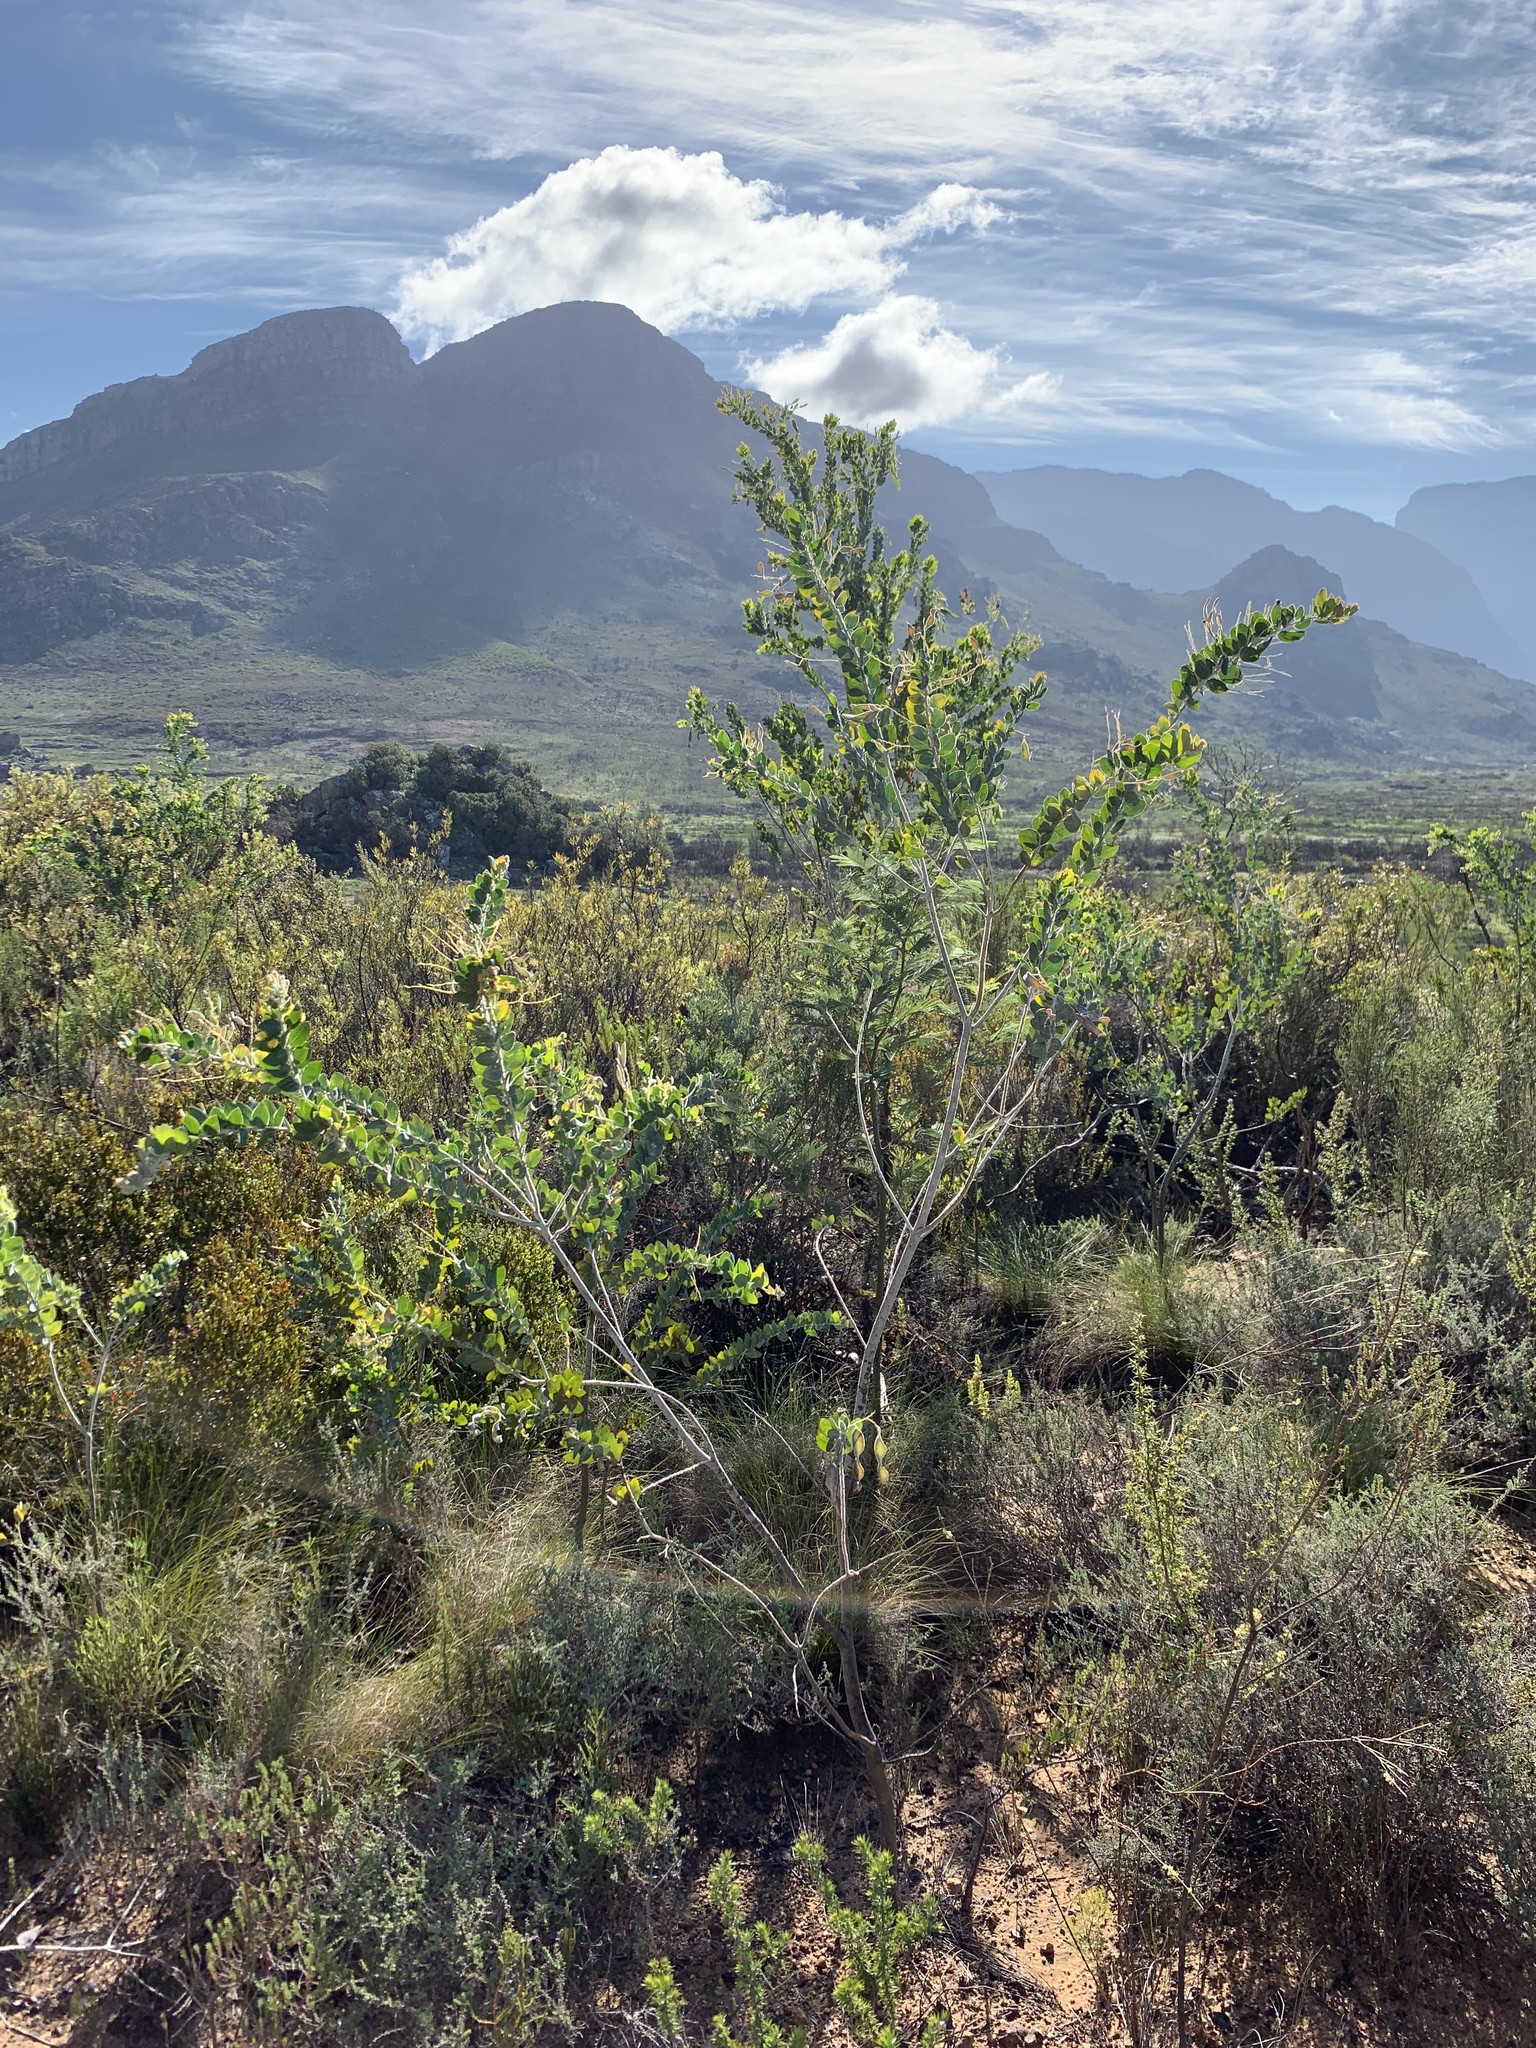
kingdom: Plantae
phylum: Tracheophyta
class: Magnoliopsida
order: Fabales
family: Fabaceae
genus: Acacia
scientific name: Acacia podalyriifolia
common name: Pearl wattle
